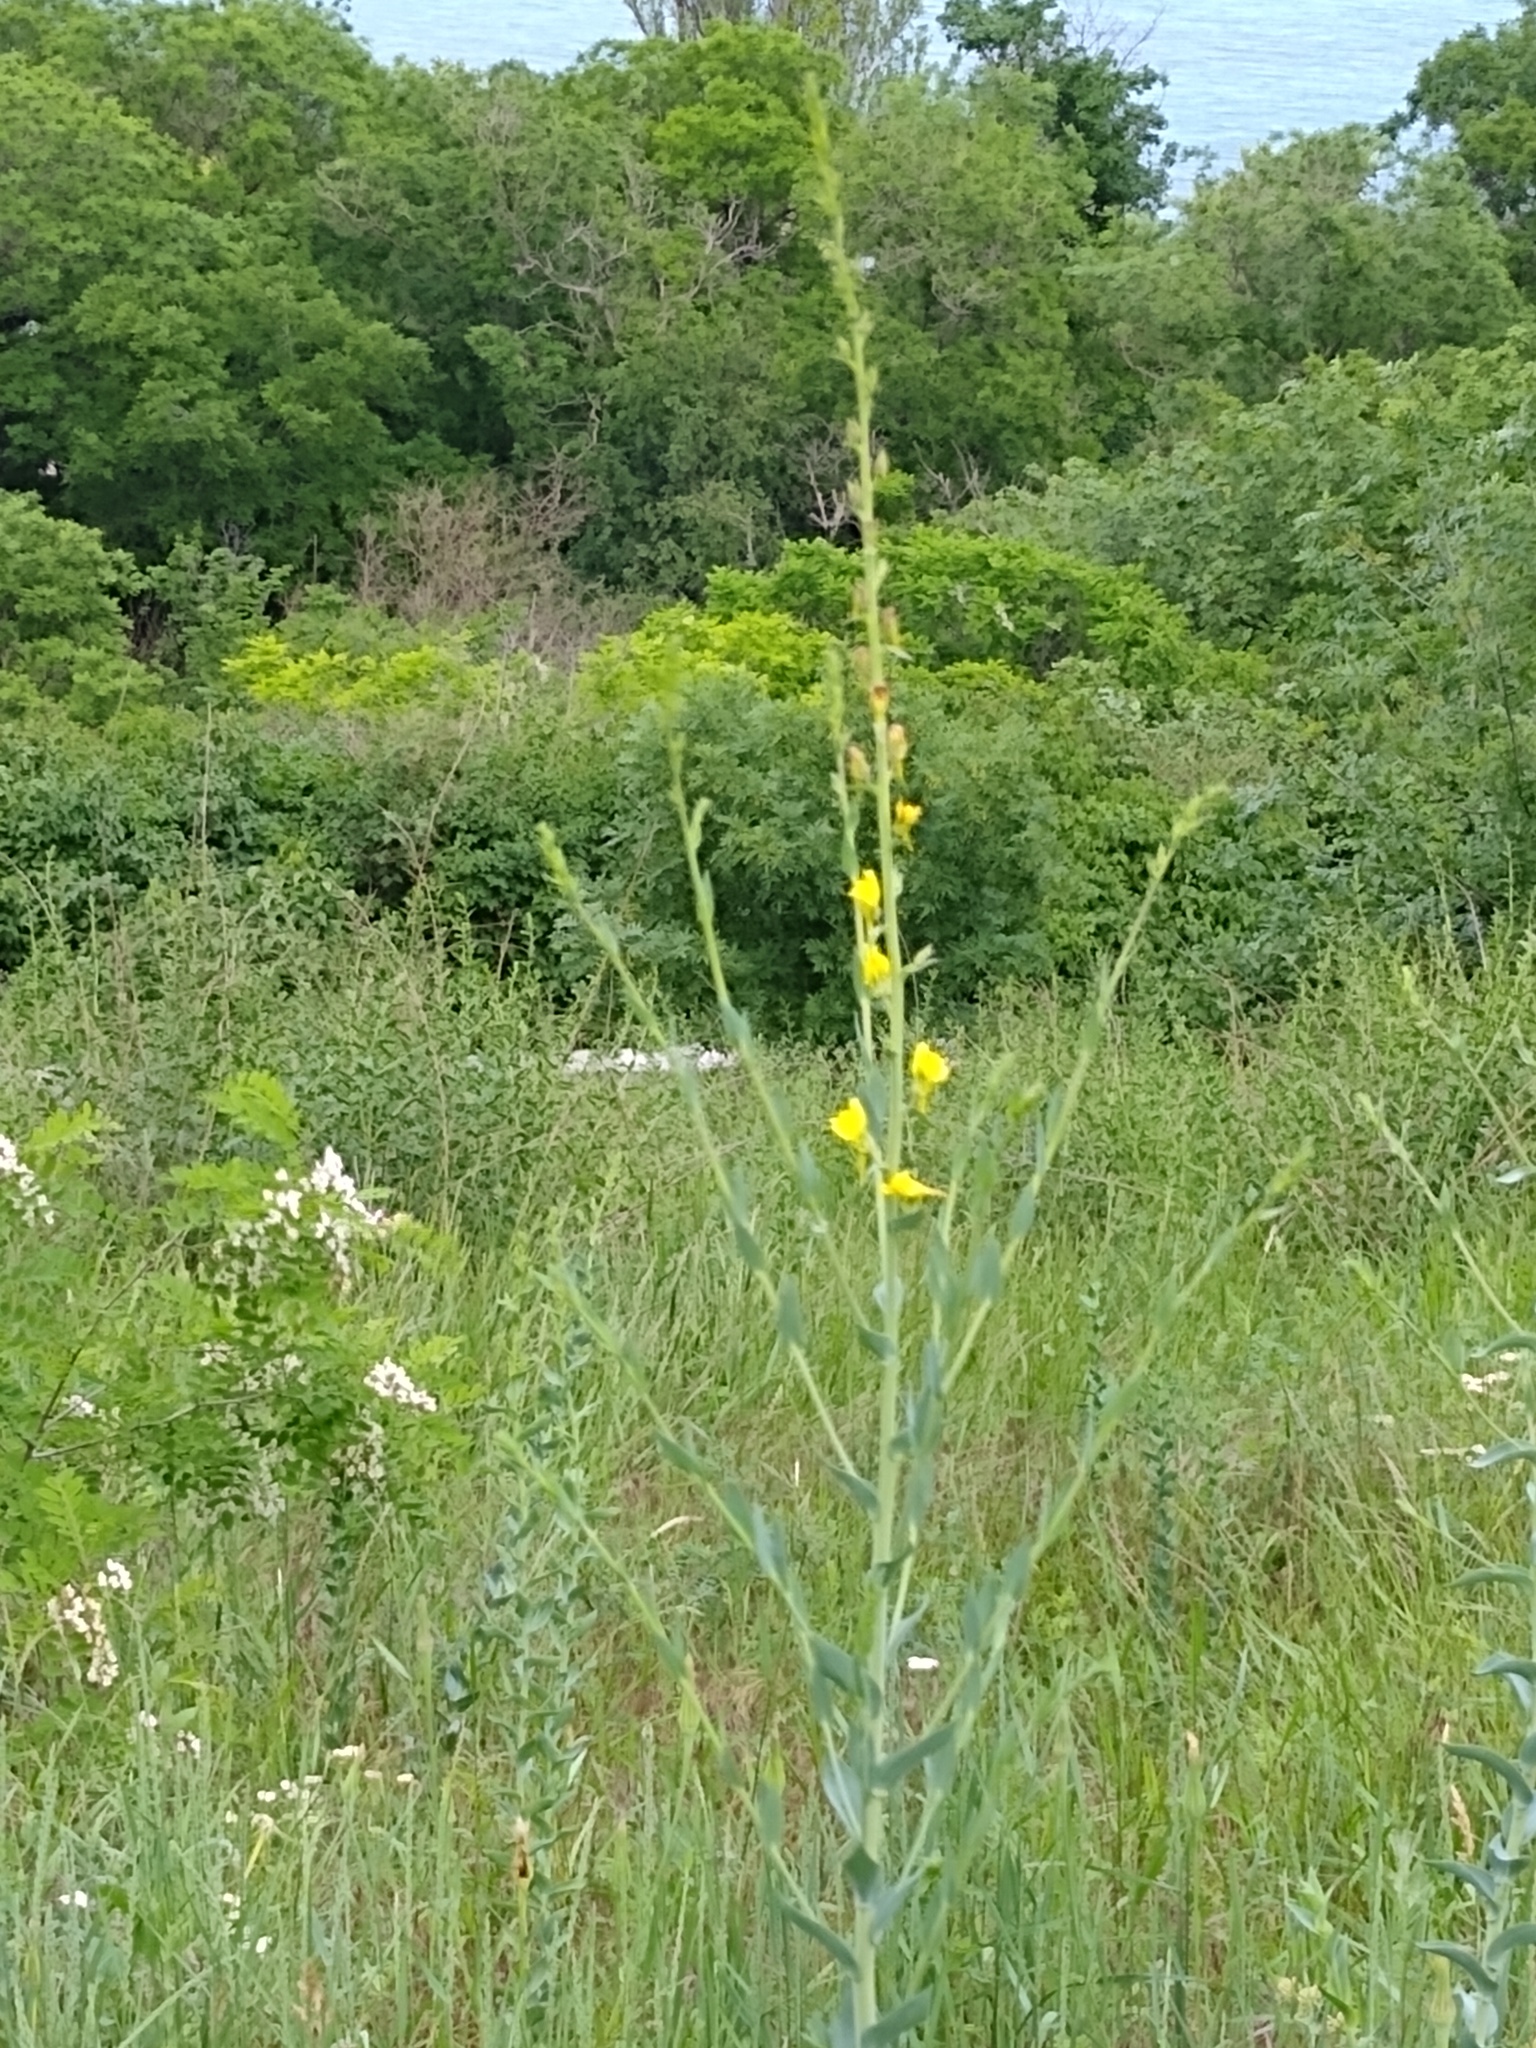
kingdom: Plantae
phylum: Tracheophyta
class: Magnoliopsida
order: Lamiales
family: Plantaginaceae
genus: Linaria
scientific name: Linaria genistifolia
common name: Broomleaf toadflax
